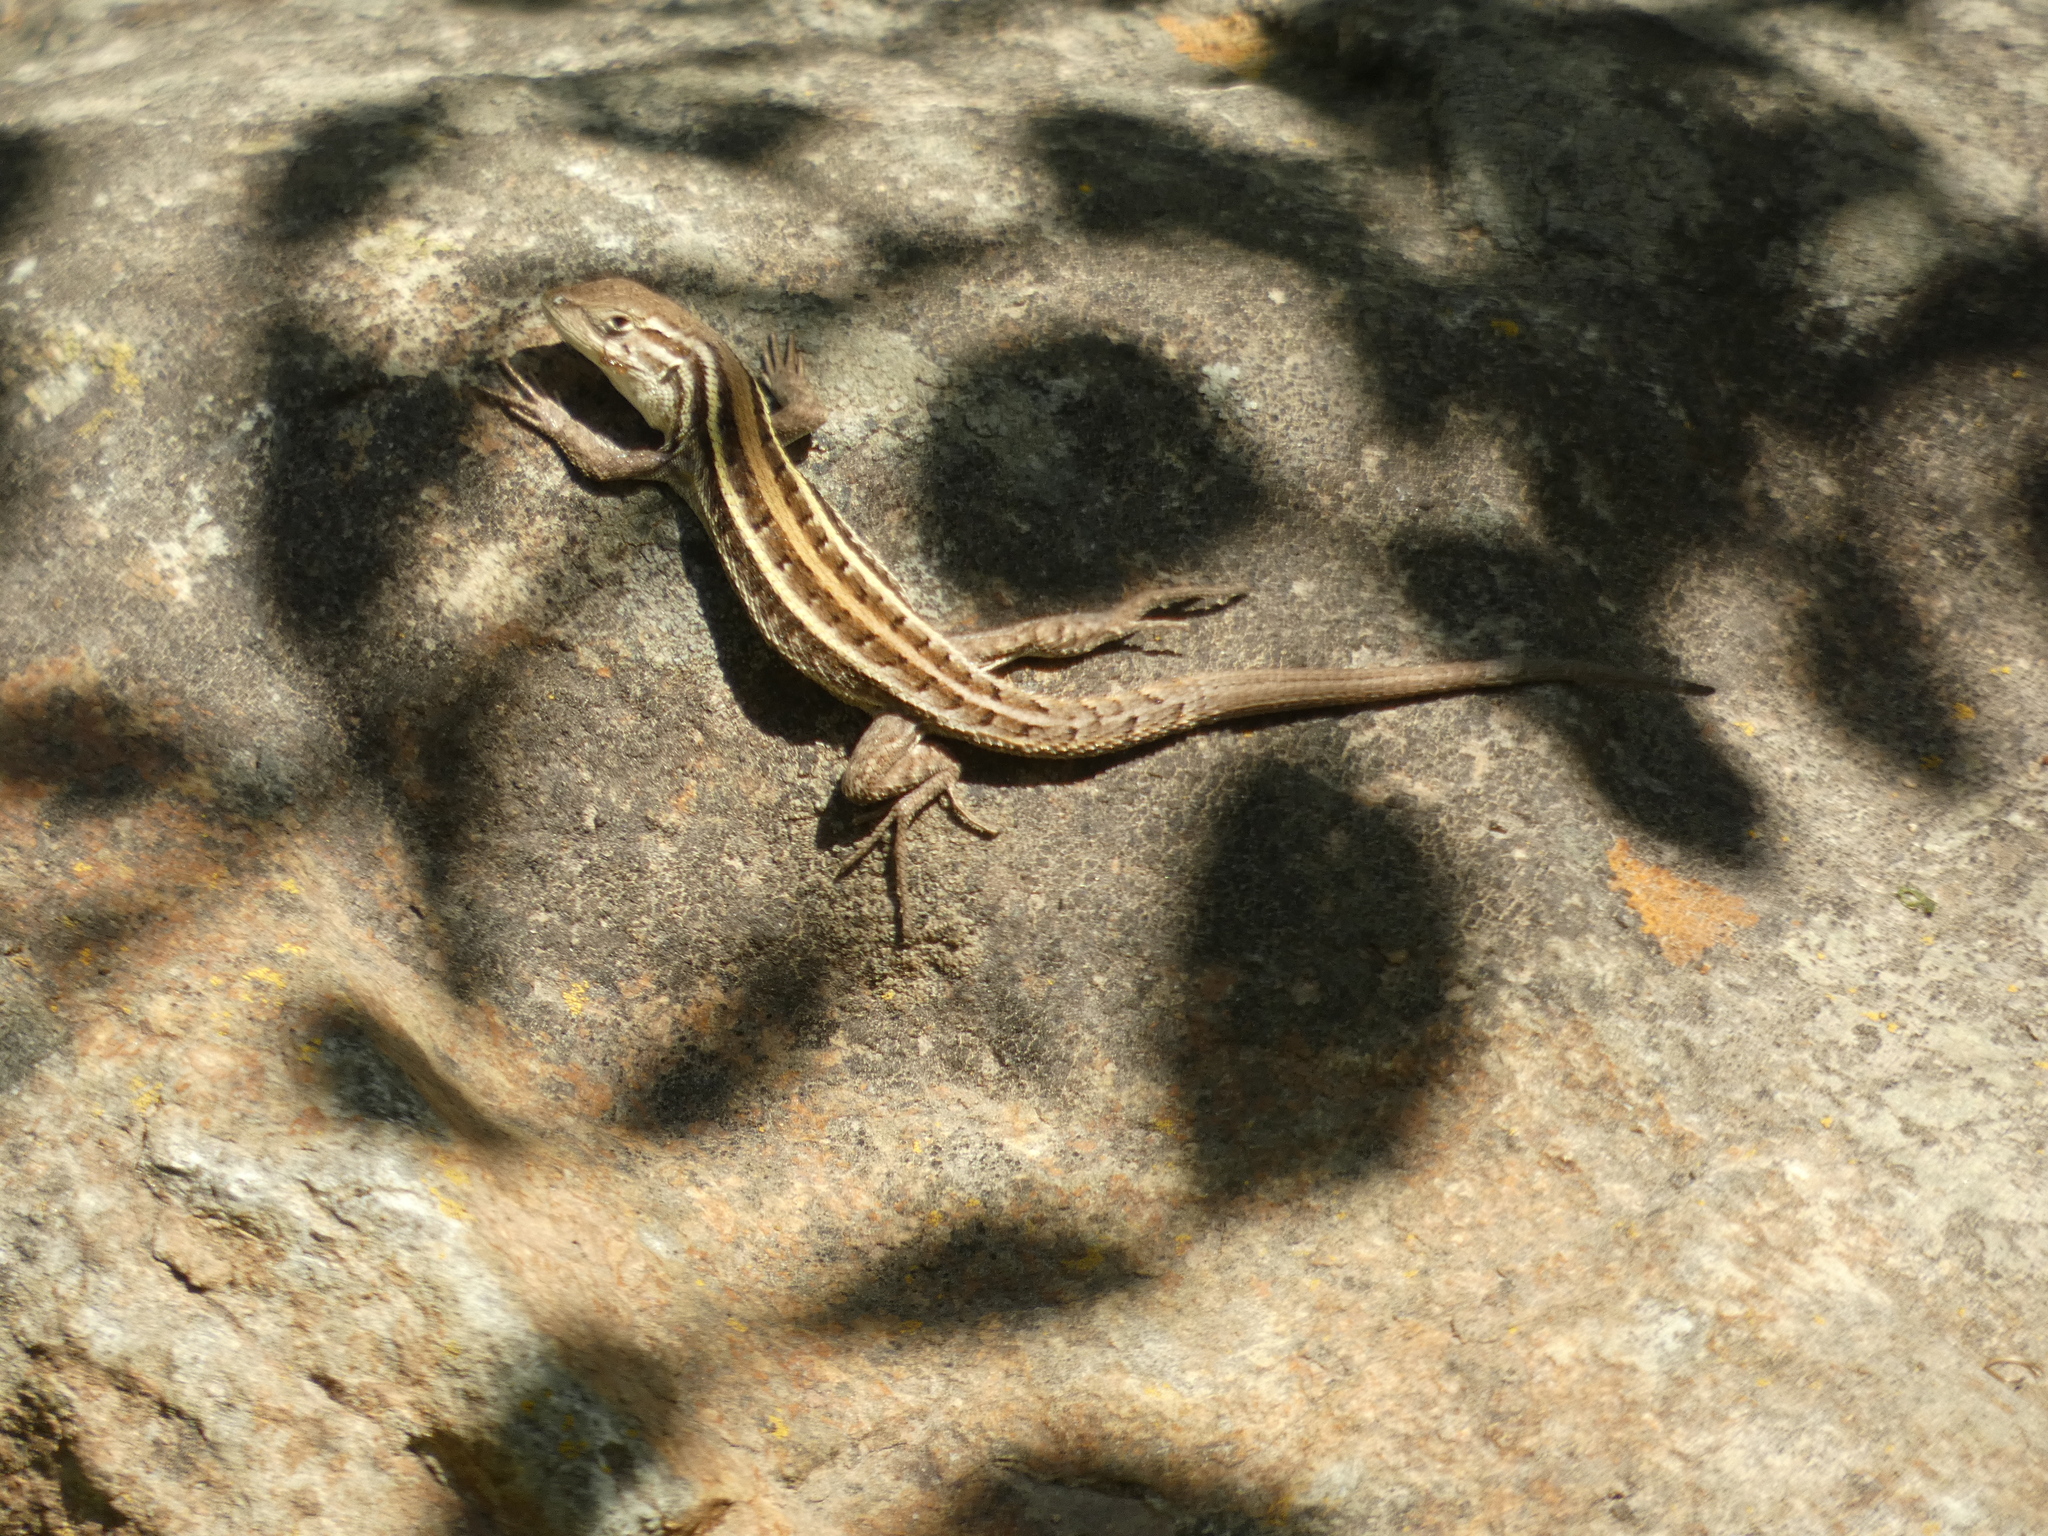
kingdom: Animalia
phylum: Chordata
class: Squamata
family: Liolaemidae
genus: Liolaemus
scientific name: Liolaemus lemniscatus
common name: Wreath tree iguana
